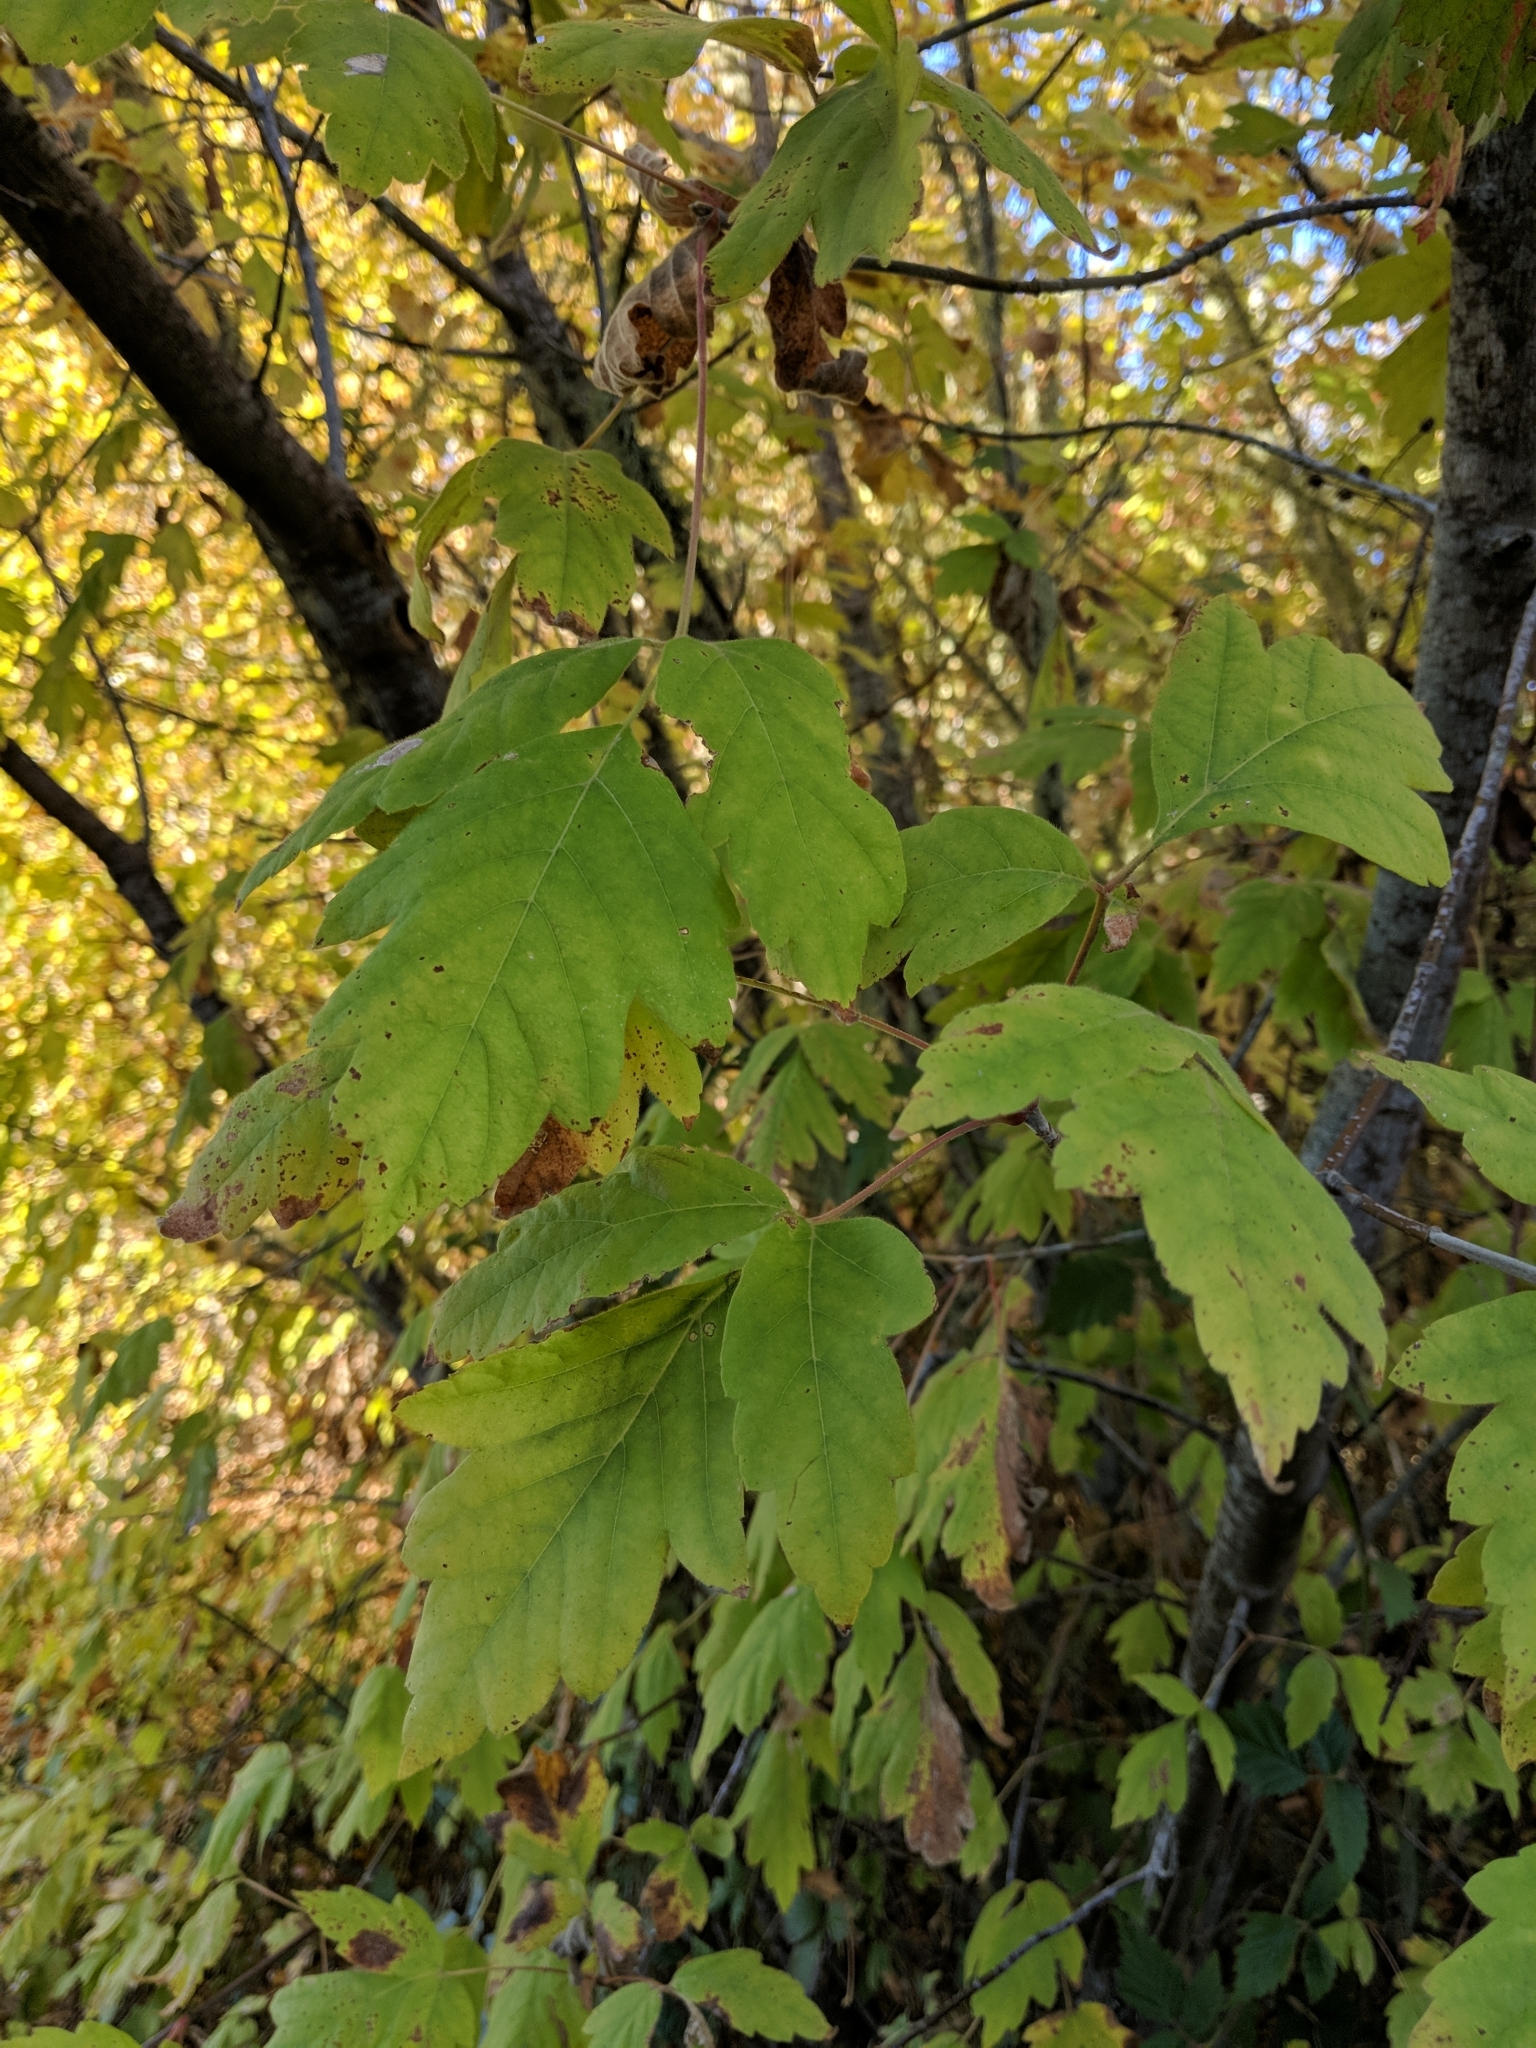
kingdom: Plantae
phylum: Tracheophyta
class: Magnoliopsida
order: Sapindales
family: Sapindaceae
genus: Acer
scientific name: Acer negundo
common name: Ashleaf maple
